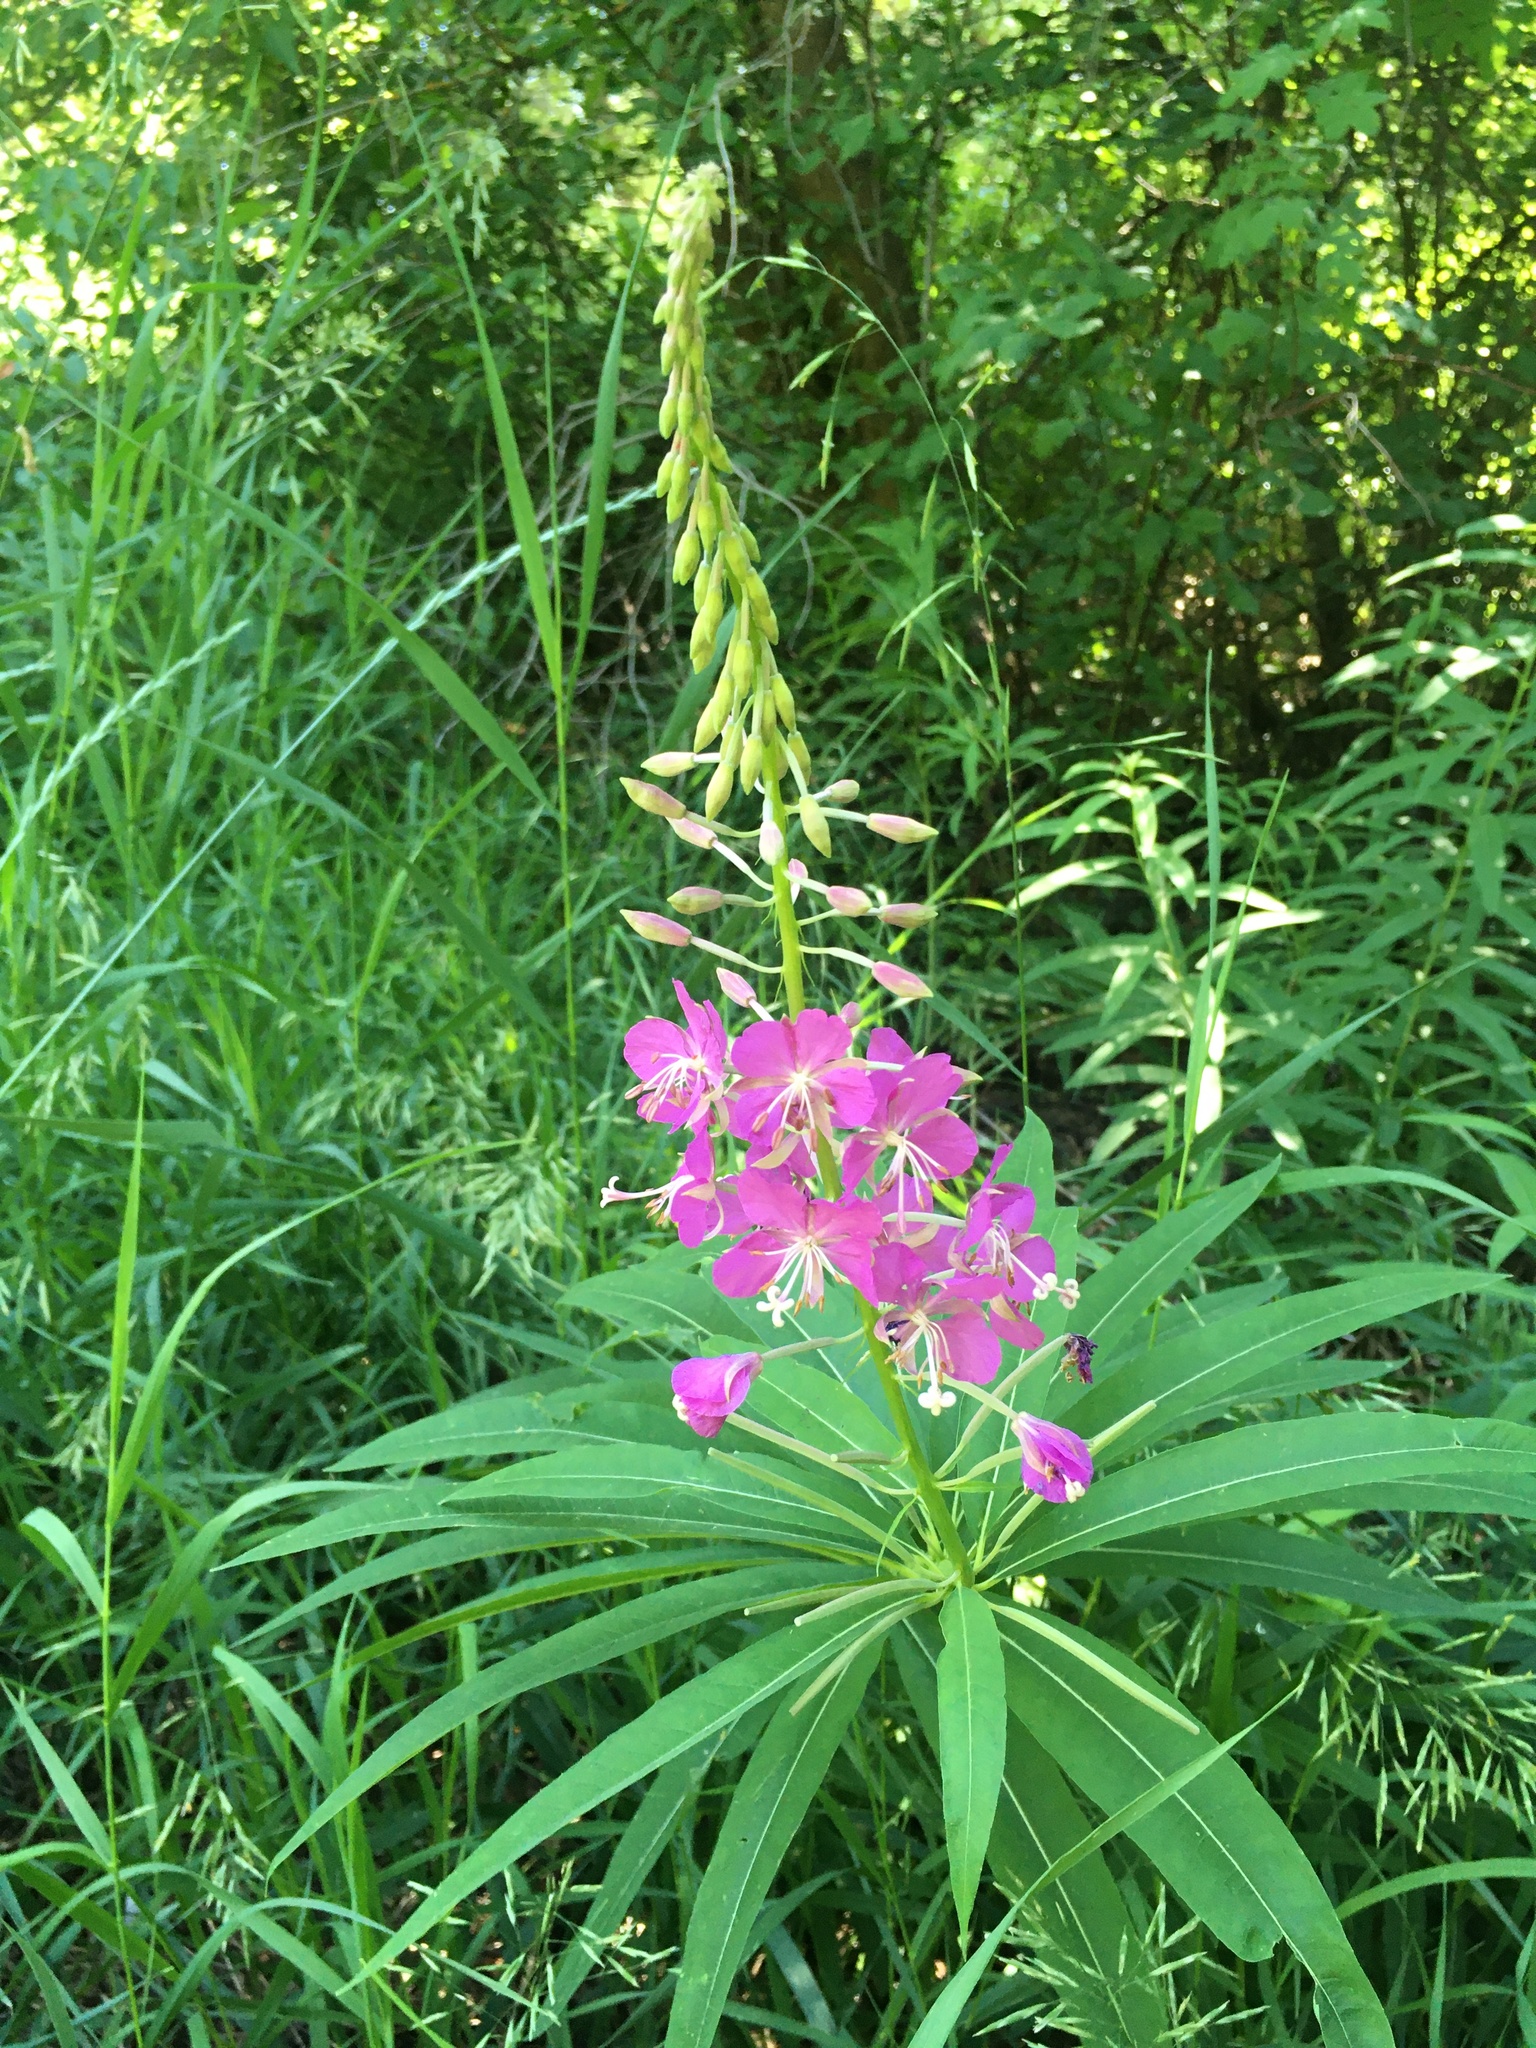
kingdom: Plantae
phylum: Tracheophyta
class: Magnoliopsida
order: Myrtales
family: Onagraceae
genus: Chamaenerion
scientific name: Chamaenerion angustifolium
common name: Fireweed
